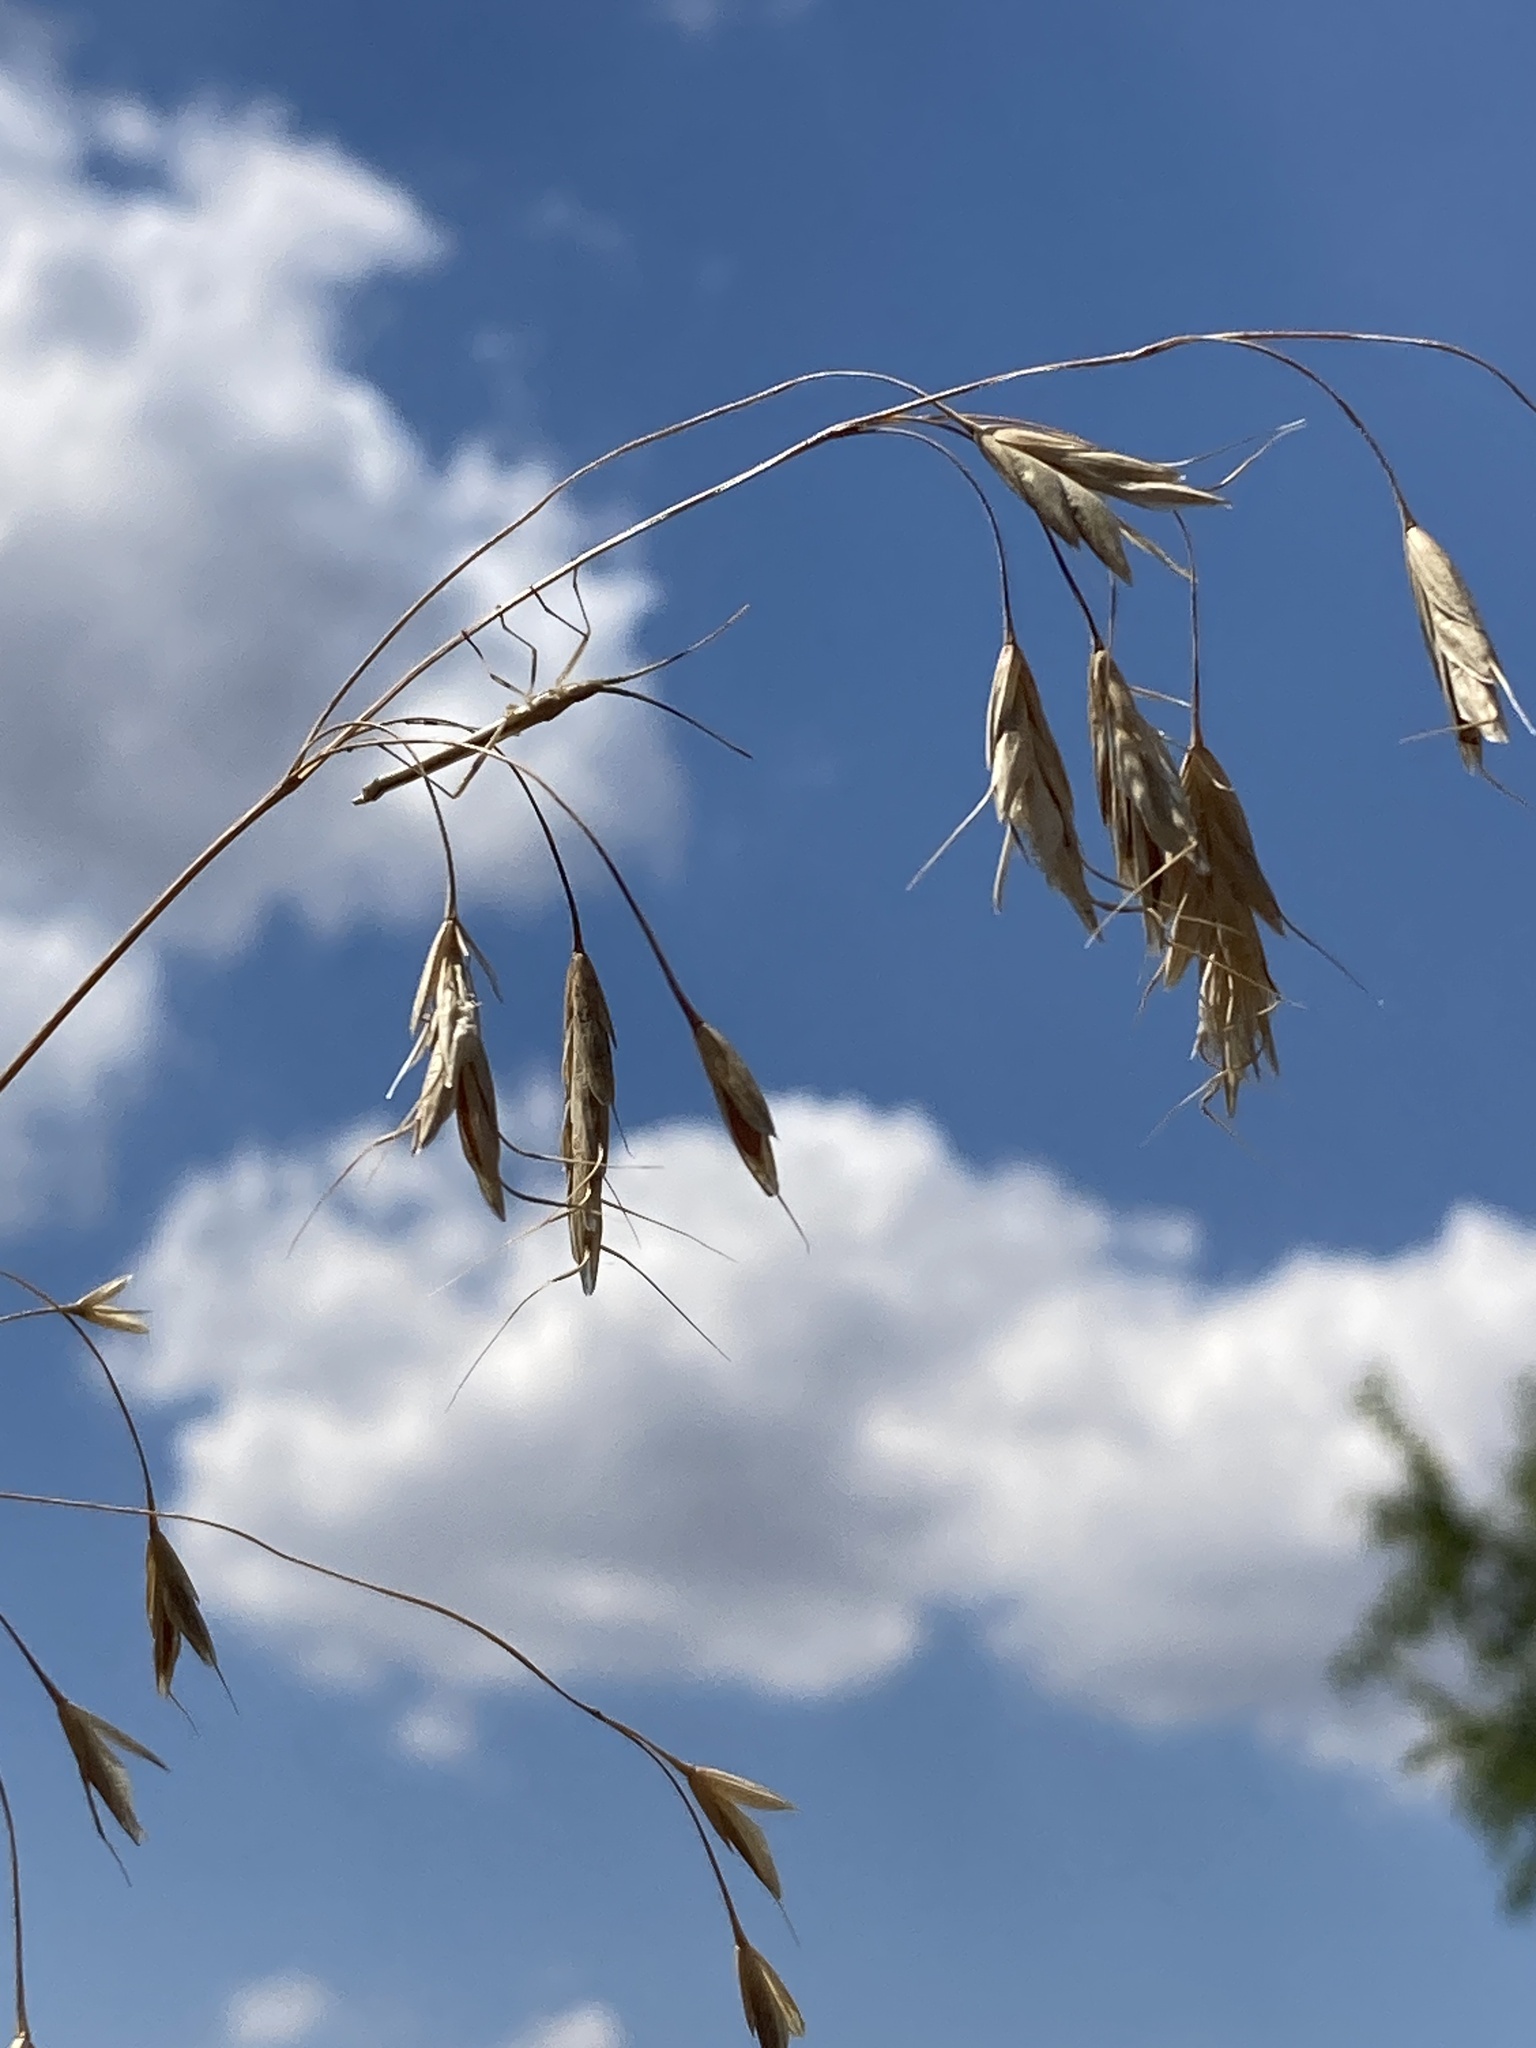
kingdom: Plantae
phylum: Tracheophyta
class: Liliopsida
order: Poales
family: Poaceae
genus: Bromus
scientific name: Bromus squarrosus
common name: Corn brome
